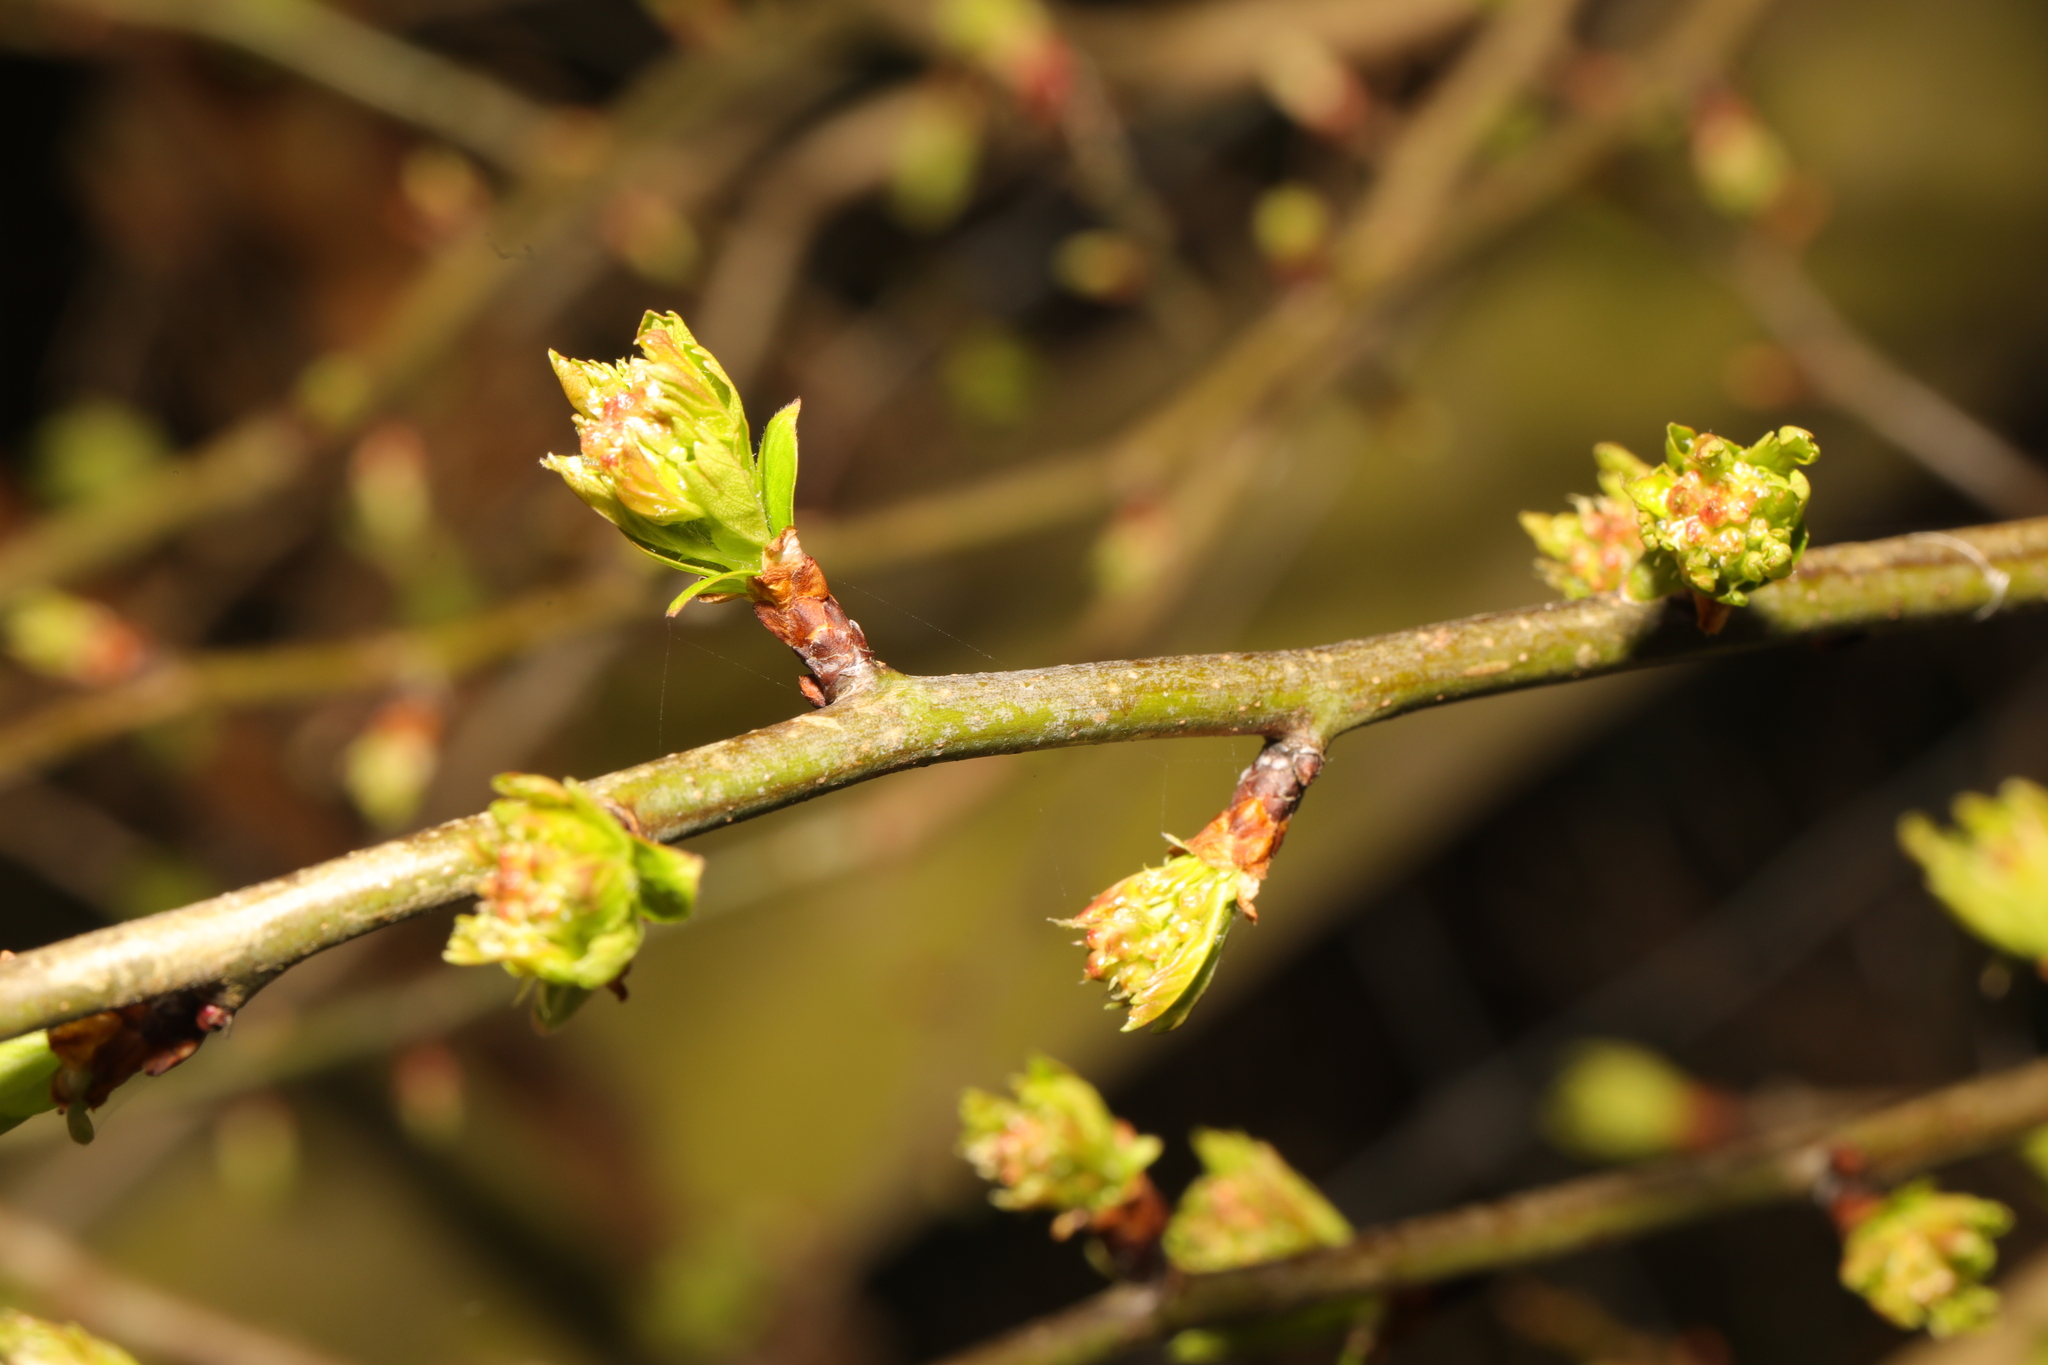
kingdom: Plantae
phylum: Tracheophyta
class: Magnoliopsida
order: Rosales
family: Rosaceae
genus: Crataegus
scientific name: Crataegus monogyna
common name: Hawthorn
